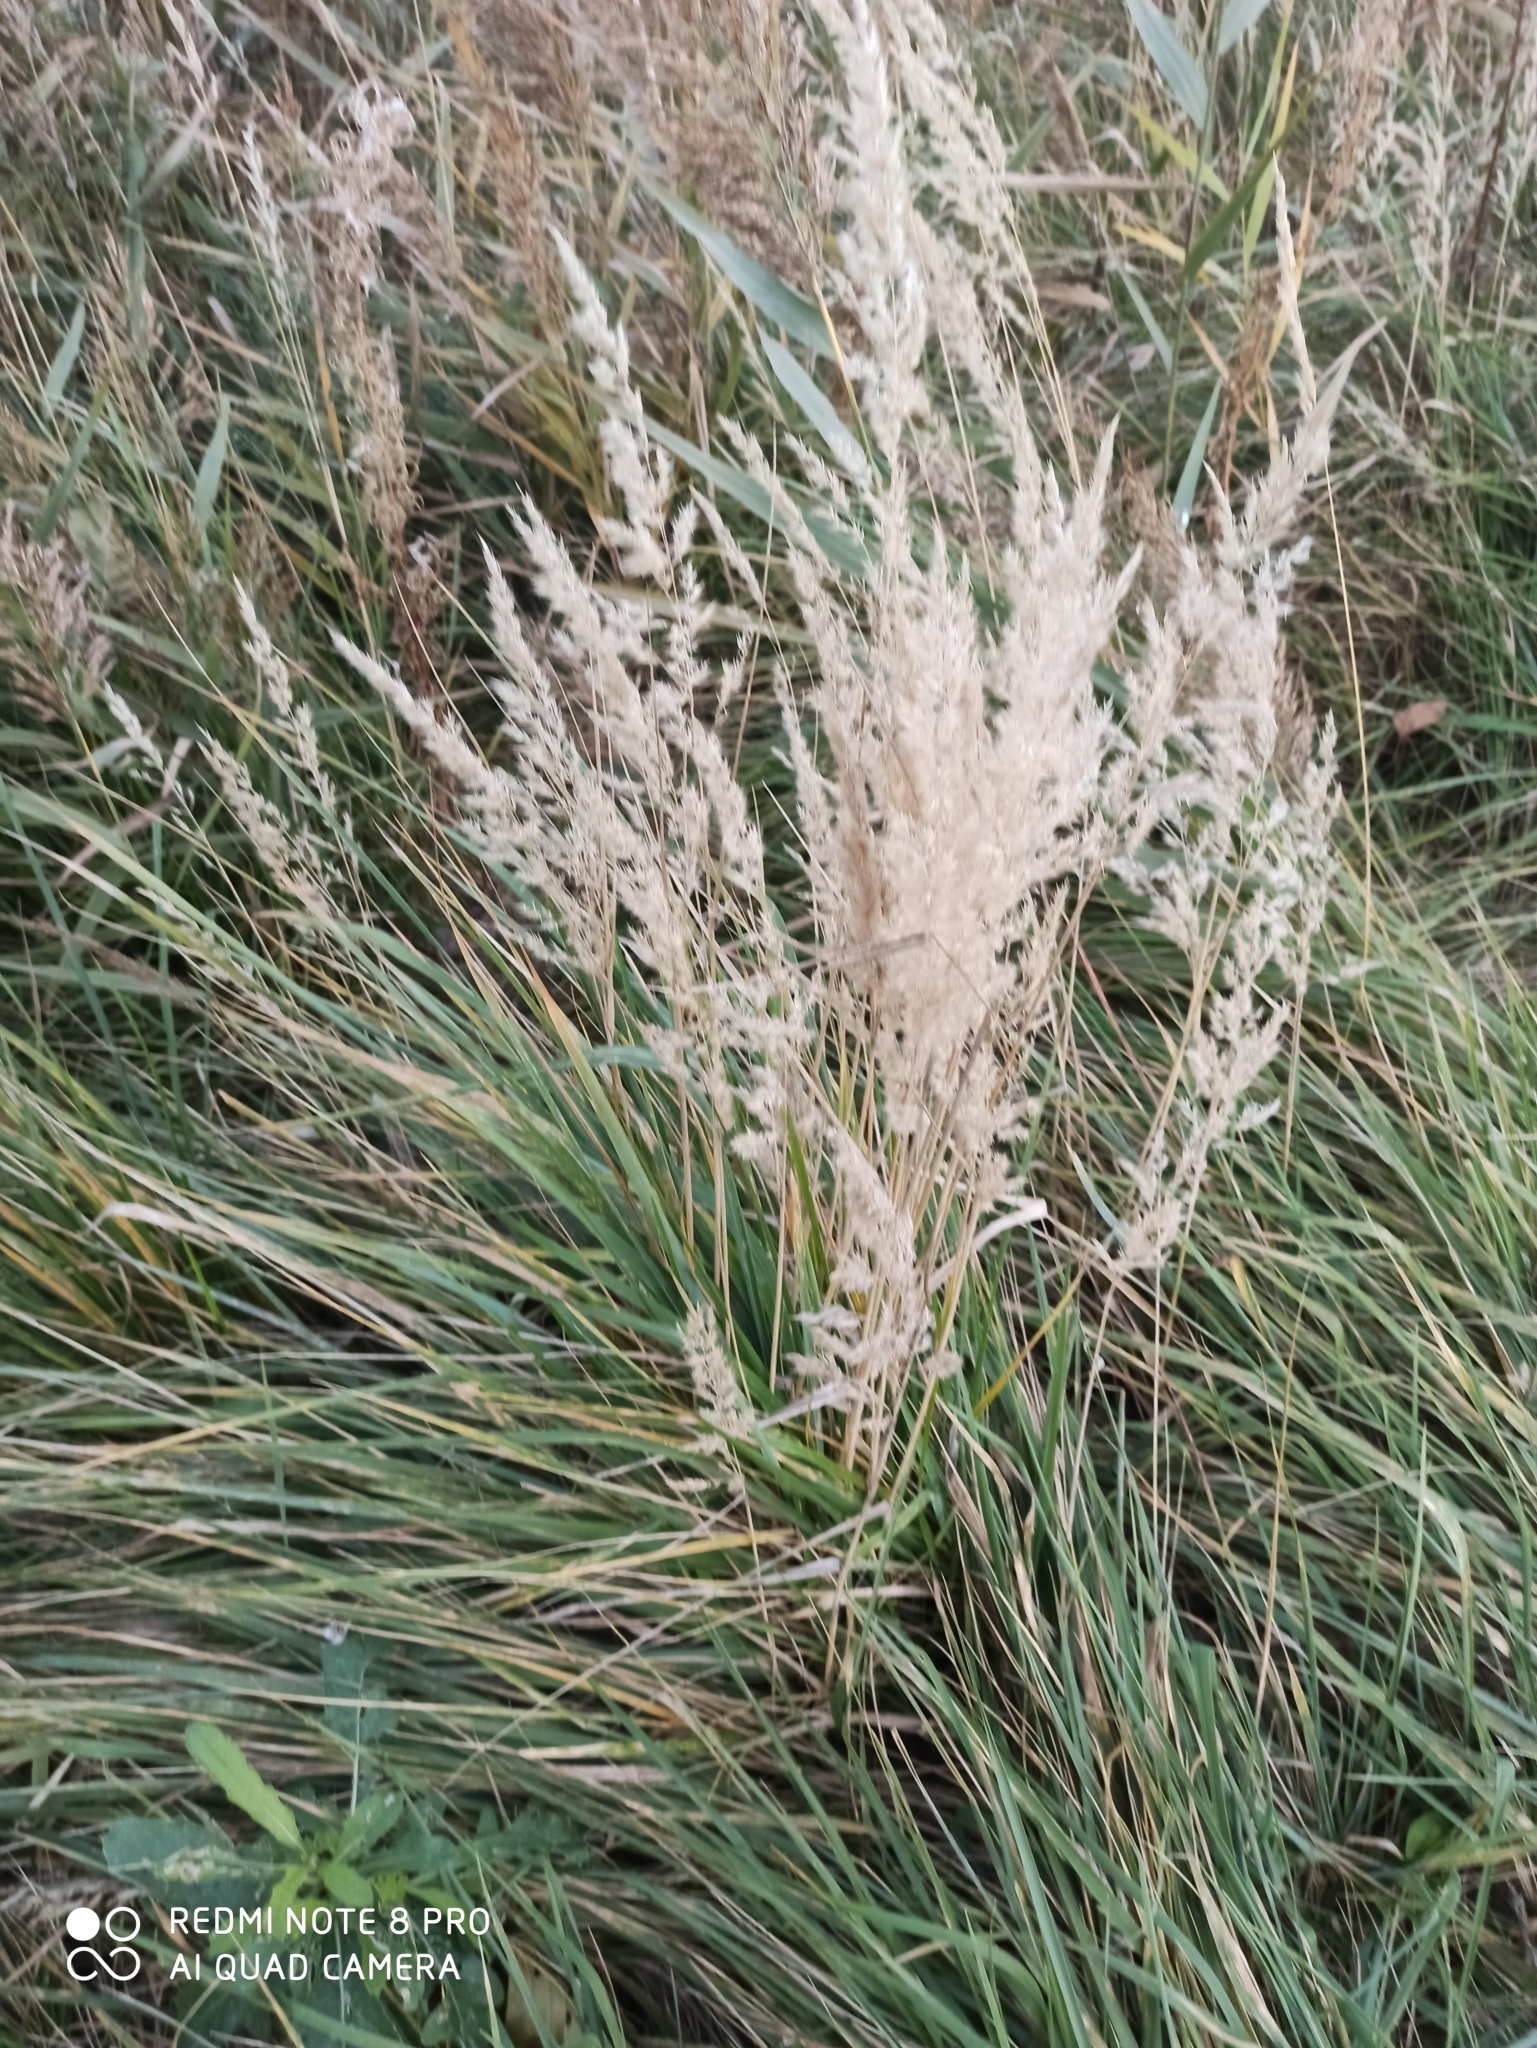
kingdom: Plantae
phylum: Tracheophyta
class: Liliopsida
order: Poales
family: Poaceae
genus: Calamagrostis
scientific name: Calamagrostis epigejos
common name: Wood small-reed
